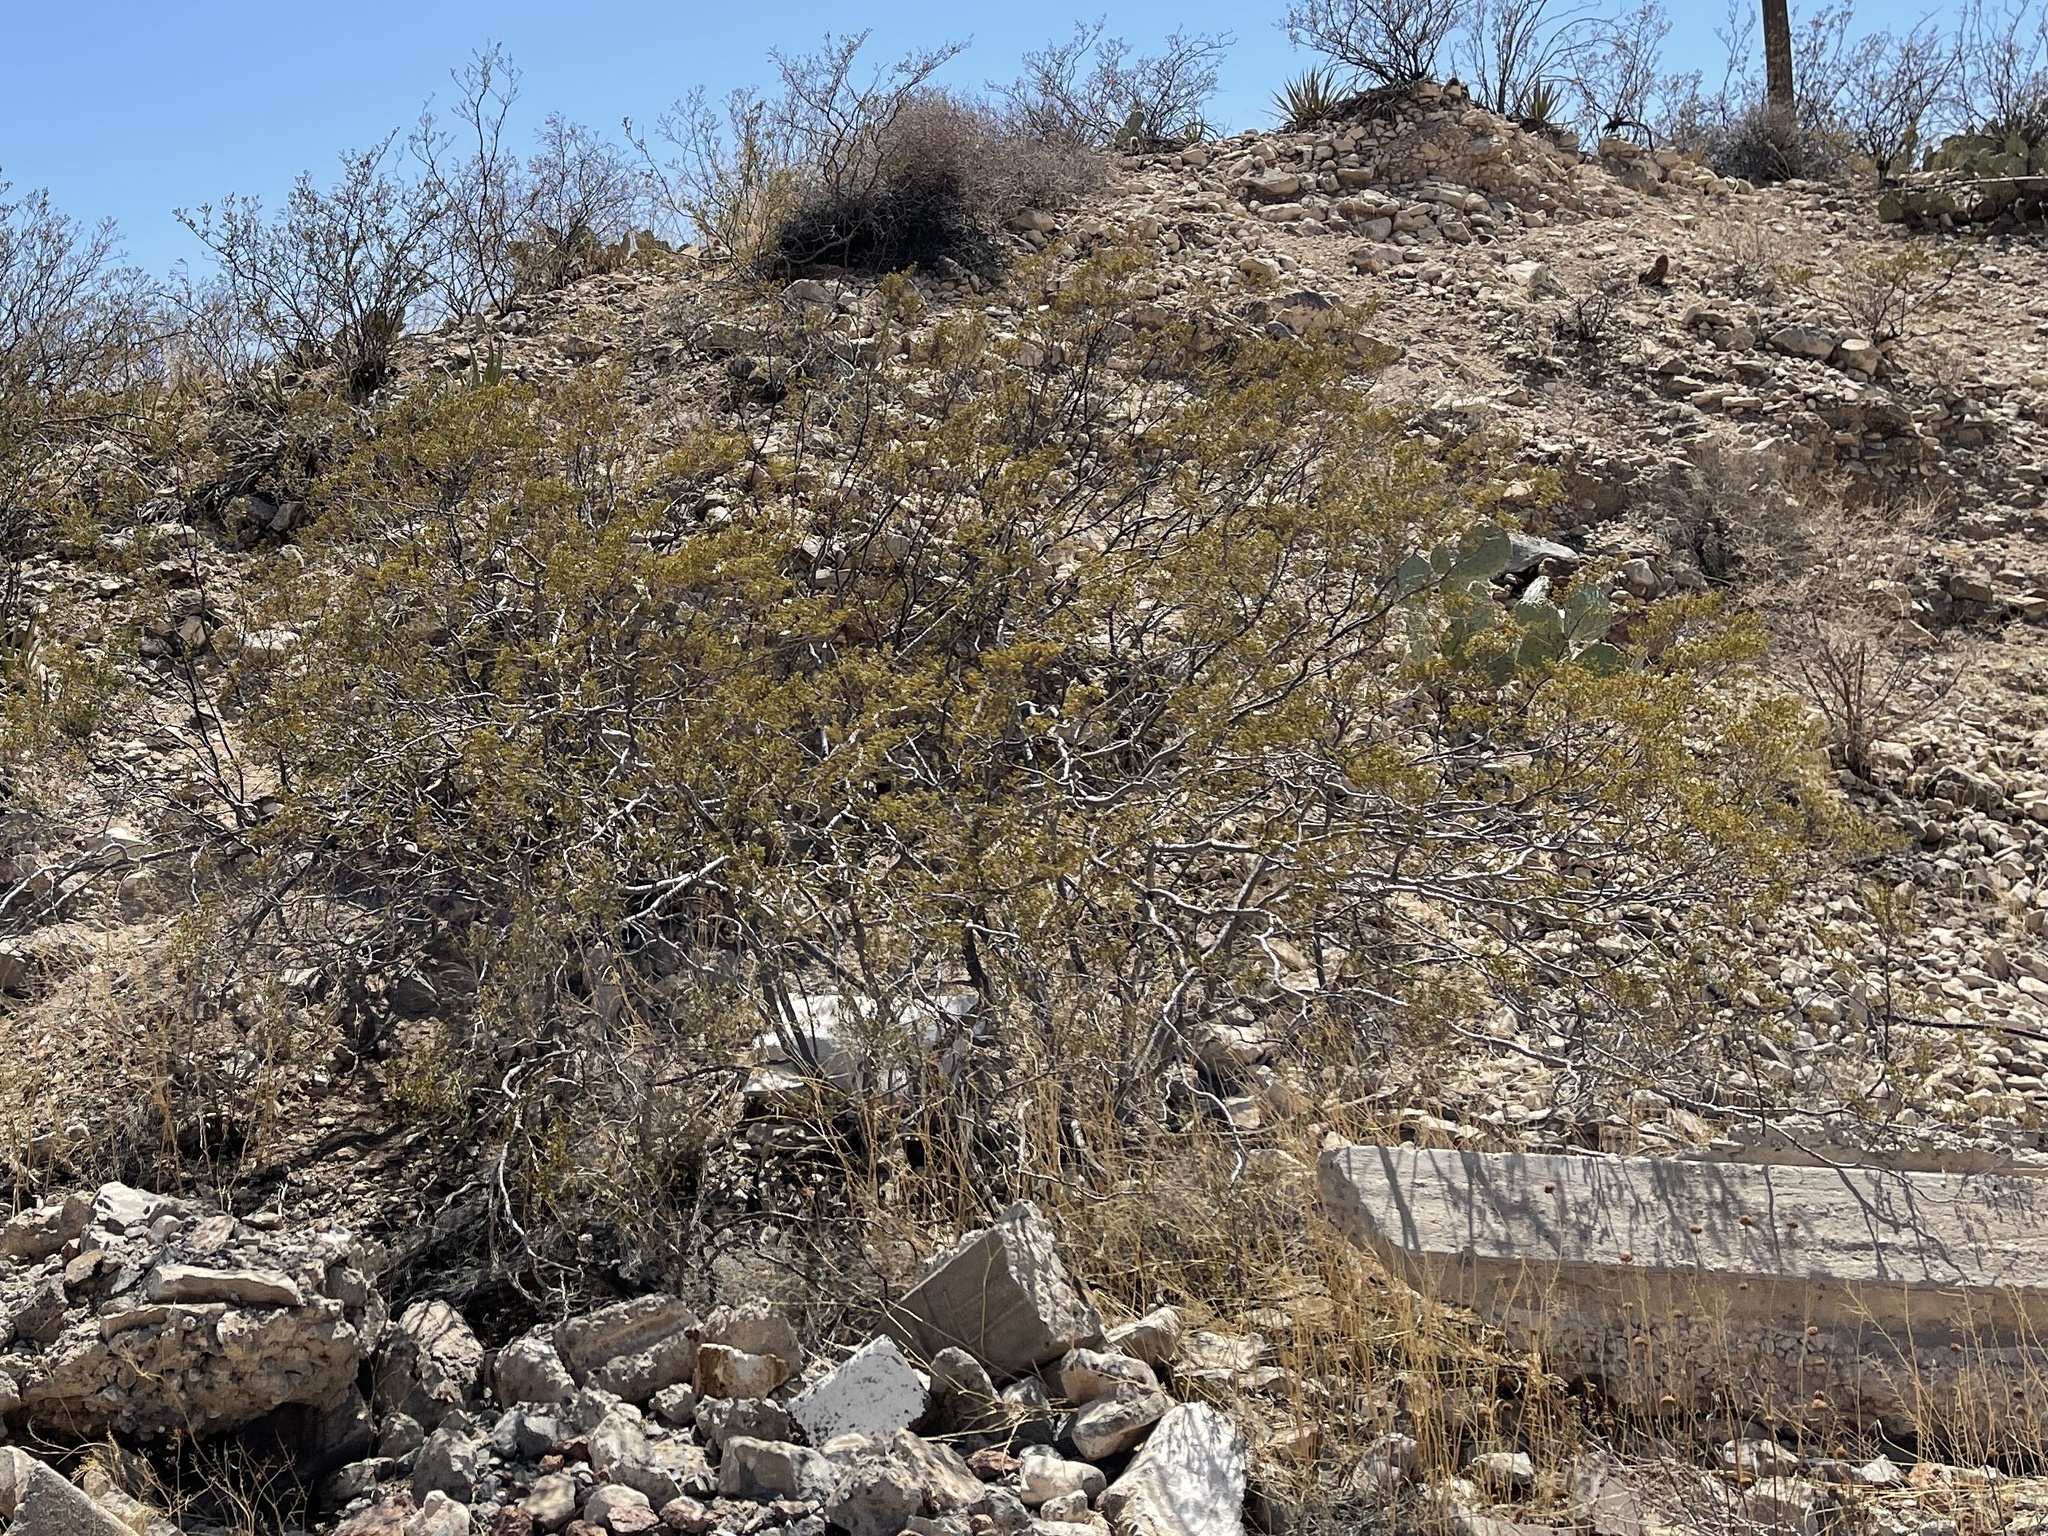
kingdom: Plantae
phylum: Tracheophyta
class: Magnoliopsida
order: Zygophyllales
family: Zygophyllaceae
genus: Larrea
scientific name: Larrea tridentata
